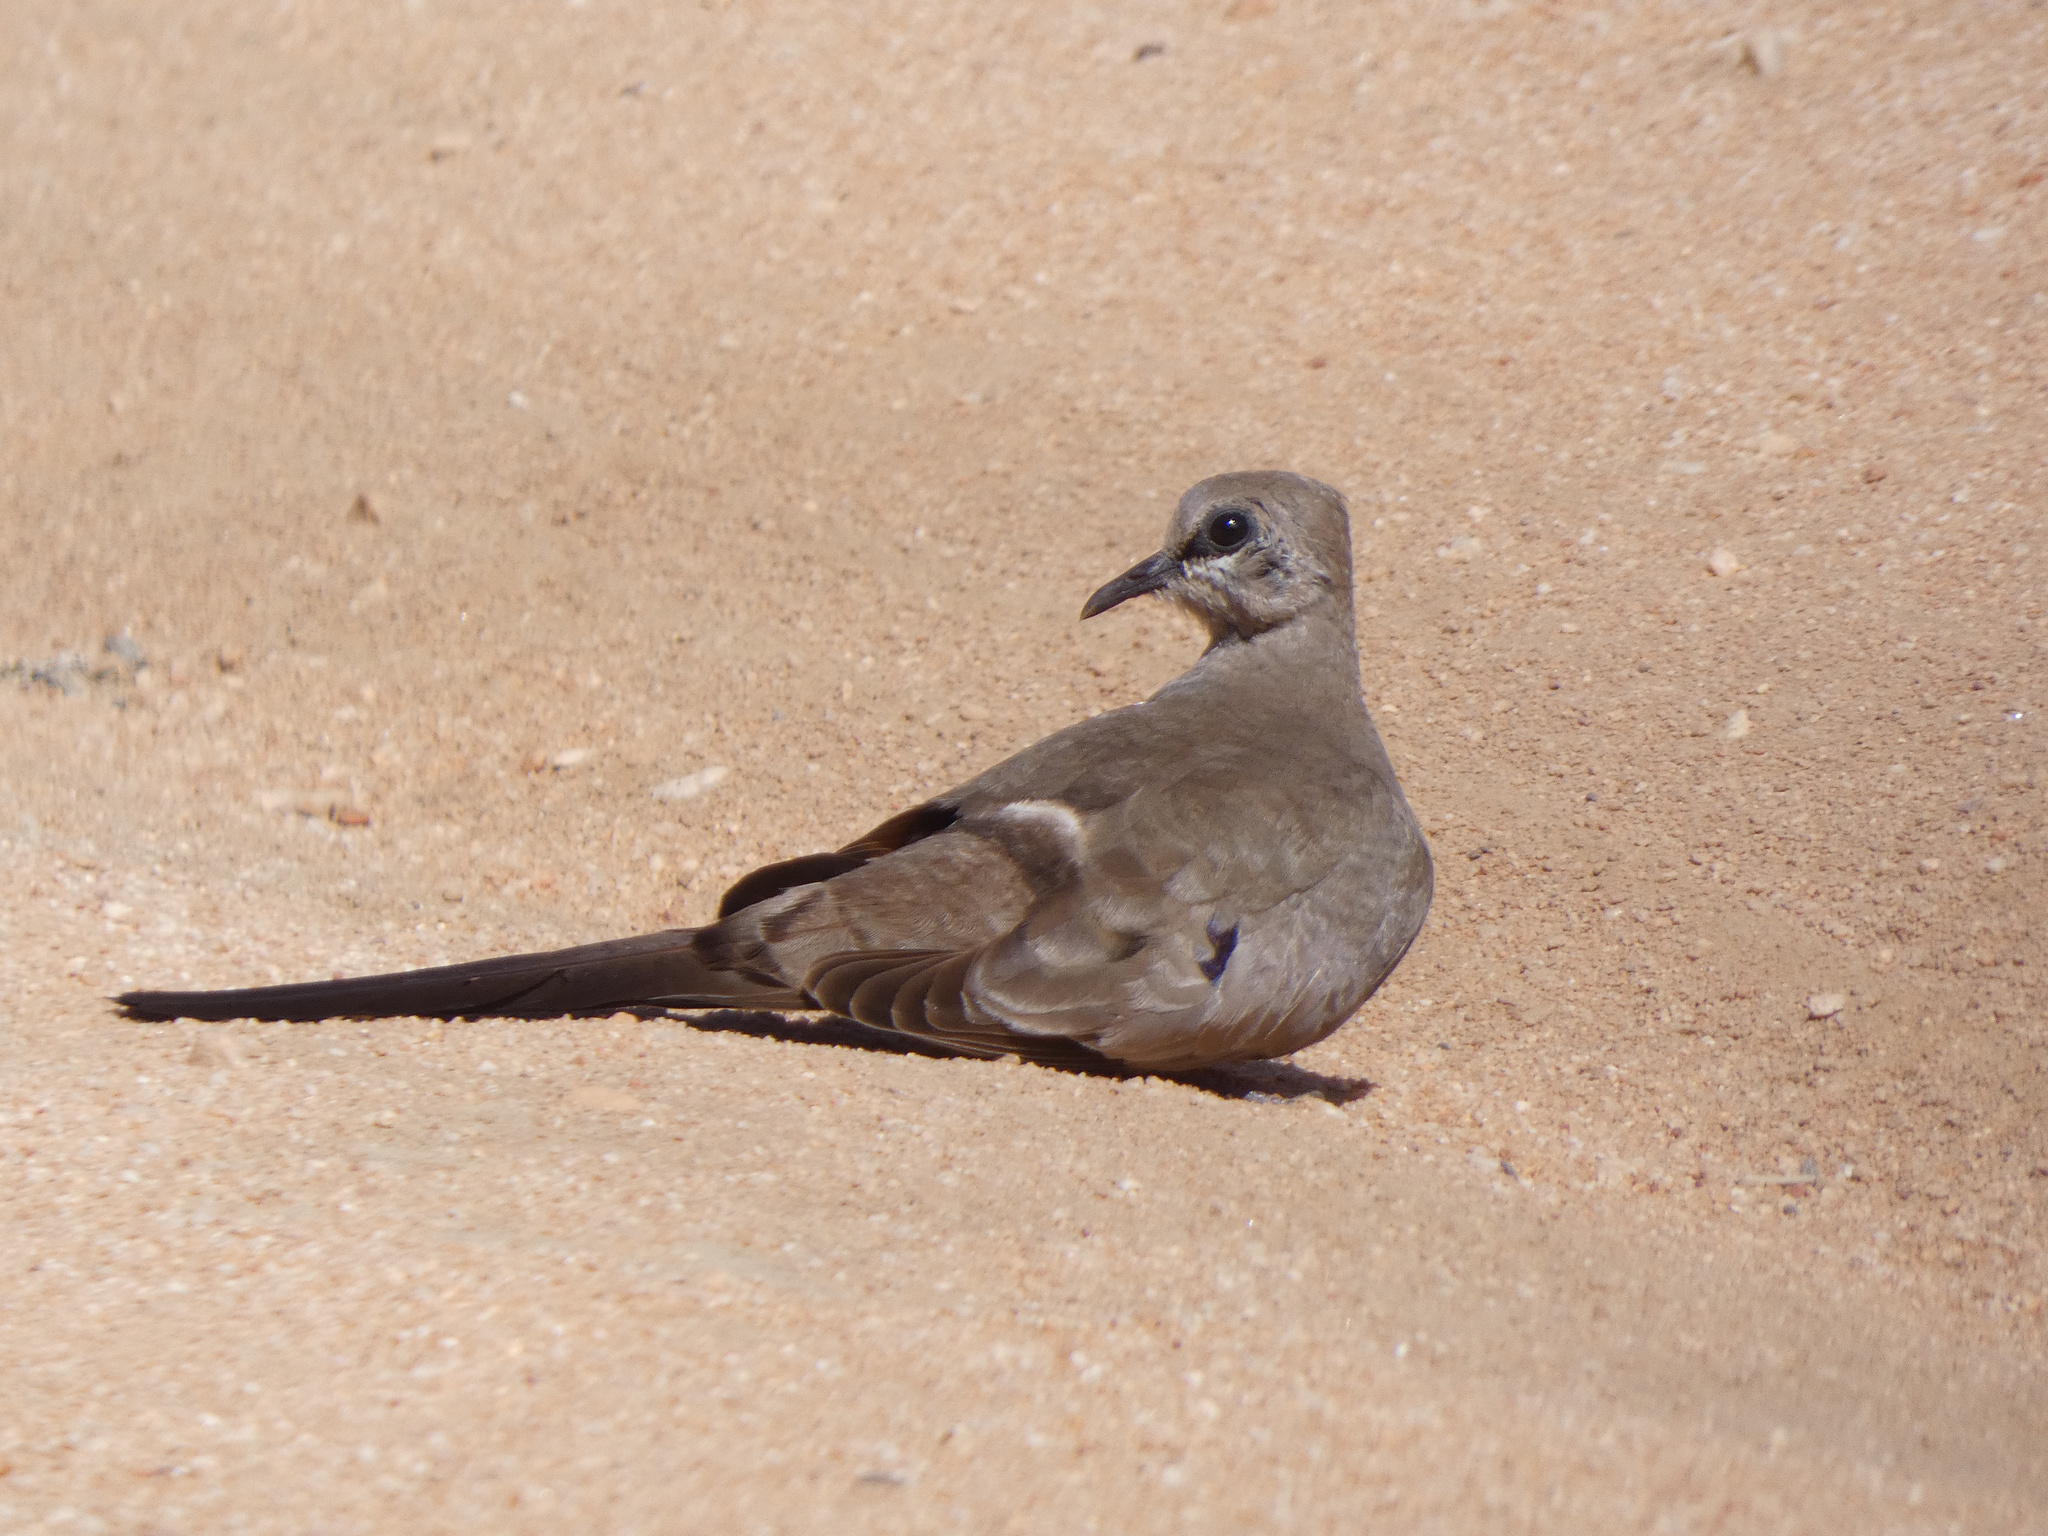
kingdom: Animalia
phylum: Chordata
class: Aves
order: Columbiformes
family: Columbidae
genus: Oena
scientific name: Oena capensis
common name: Namaqua dove
